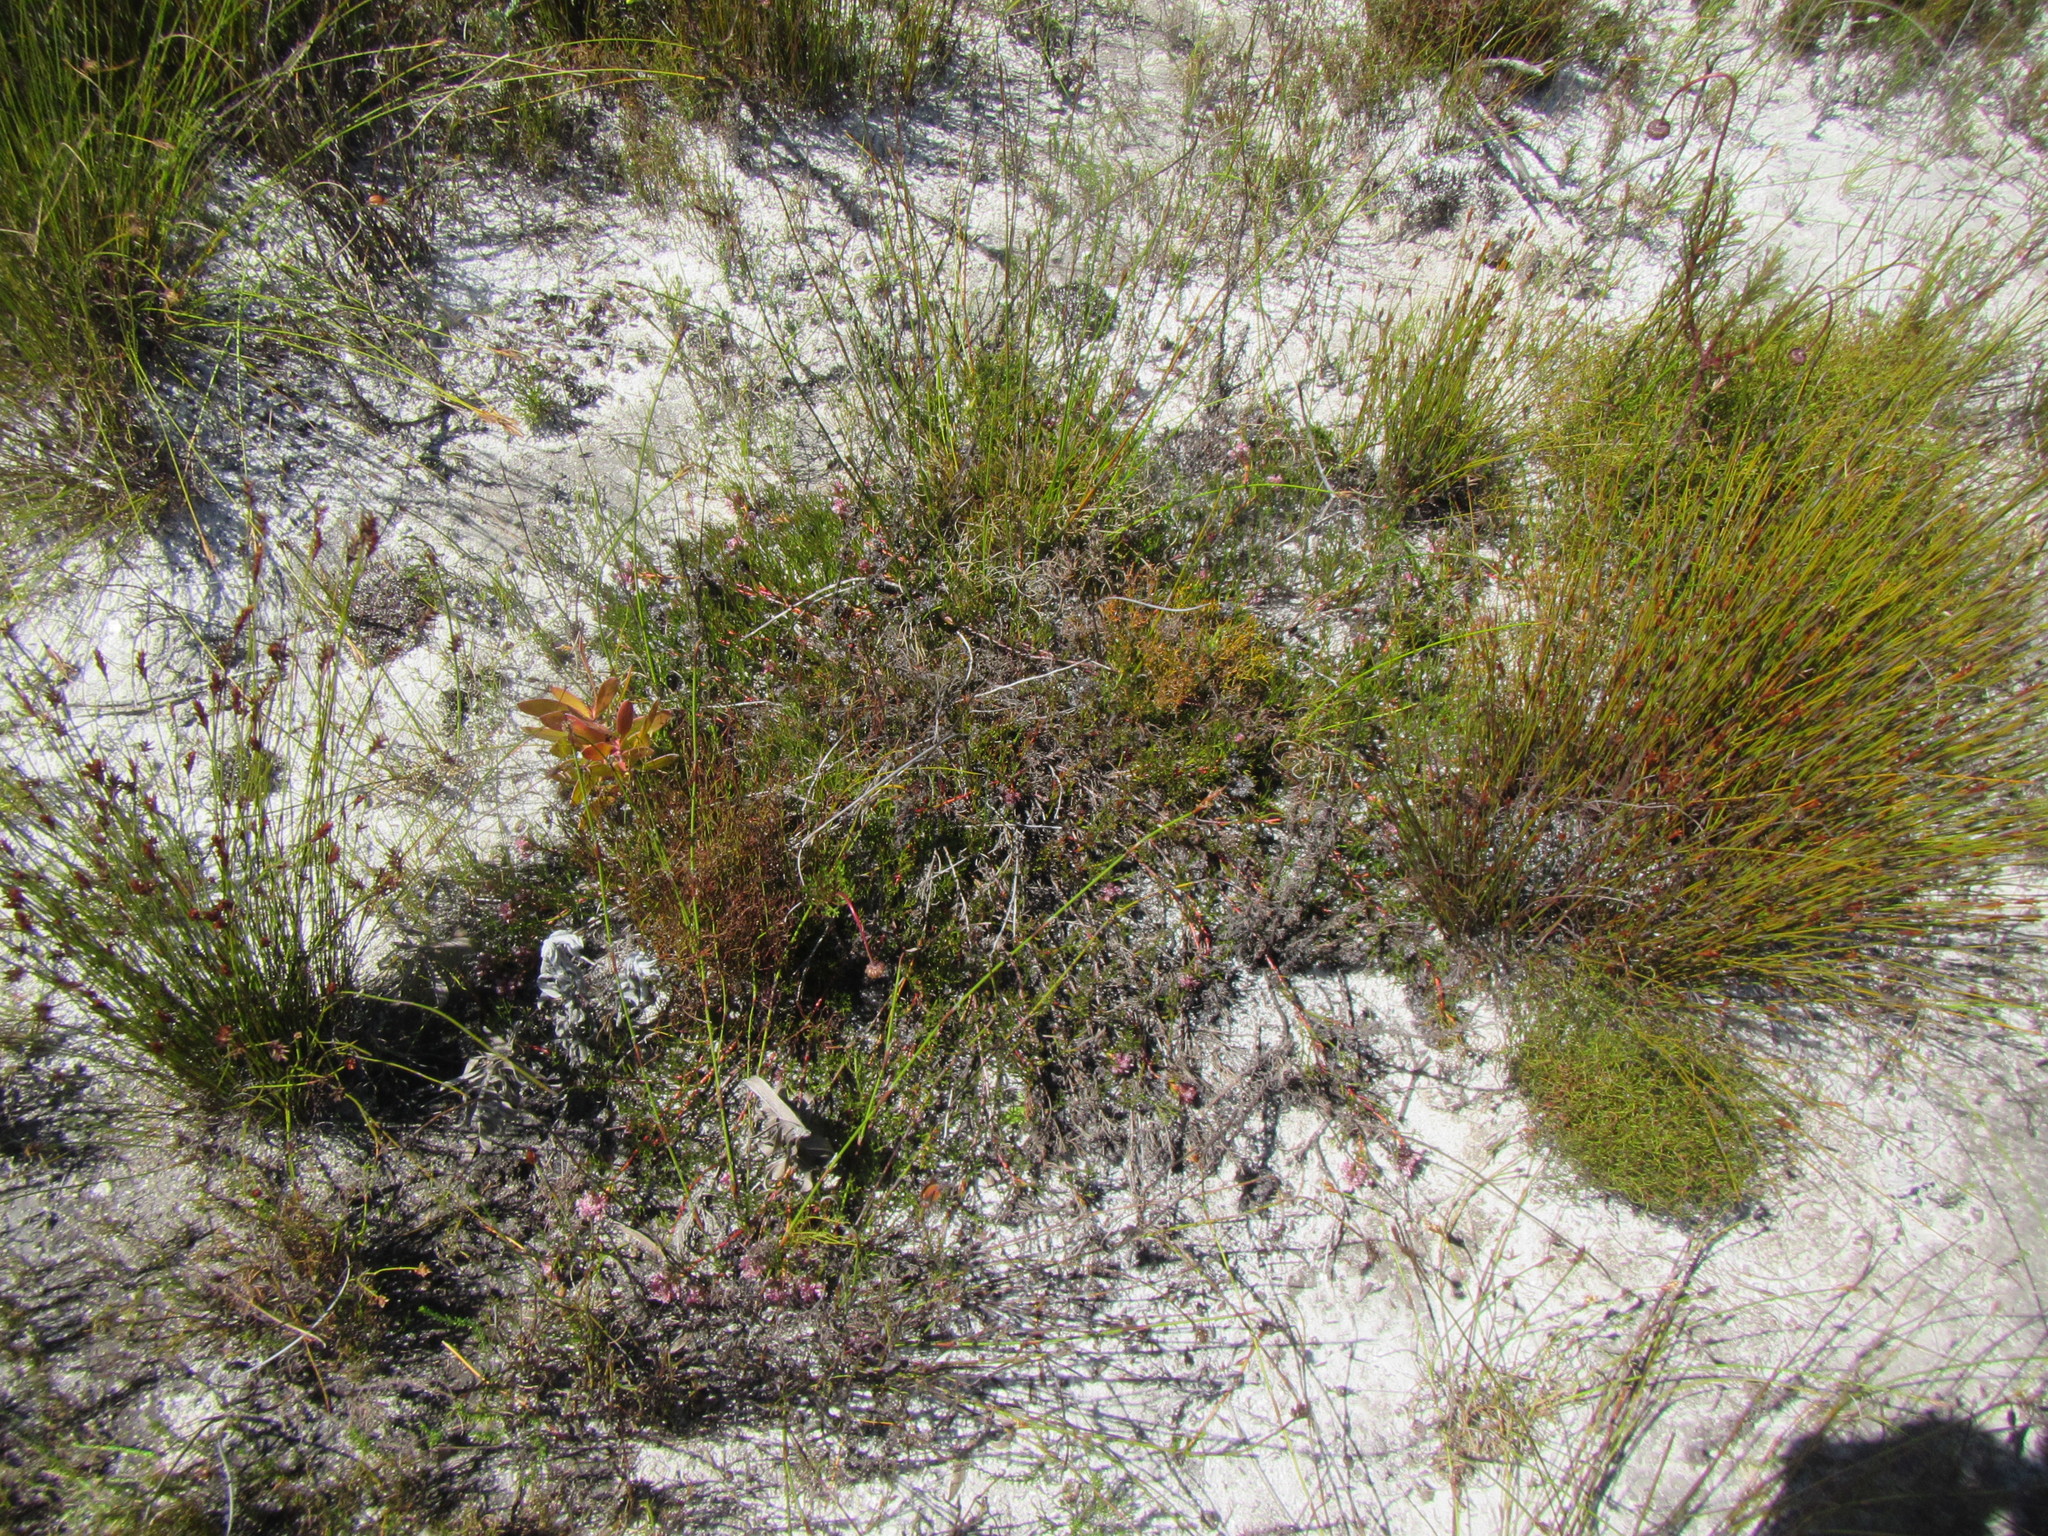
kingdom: Plantae
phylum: Tracheophyta
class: Magnoliopsida
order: Proteales
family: Proteaceae
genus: Serruria
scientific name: Serruria rubricaulis
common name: Red-stem spiderhead
